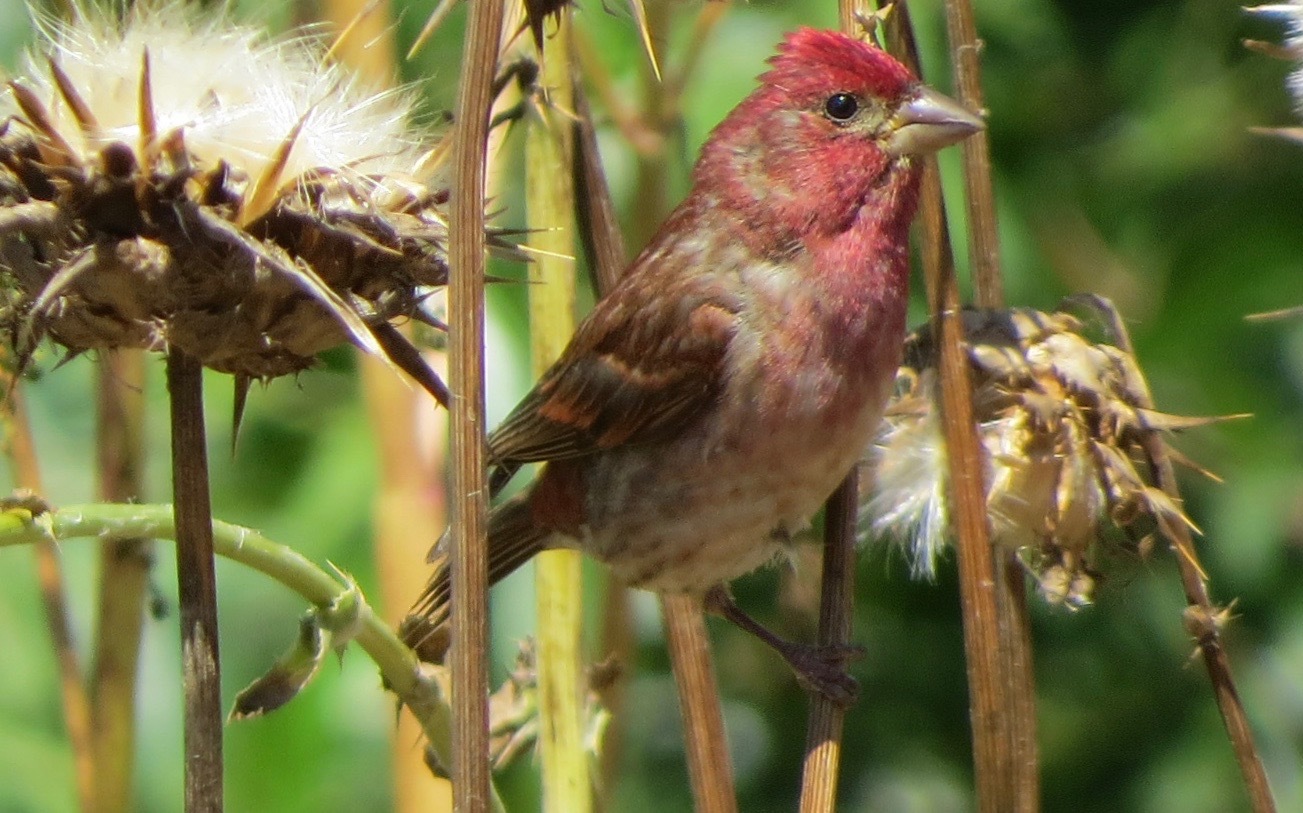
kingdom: Animalia
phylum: Chordata
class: Aves
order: Passeriformes
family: Fringillidae
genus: Haemorhous
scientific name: Haemorhous purpureus
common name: Purple finch
